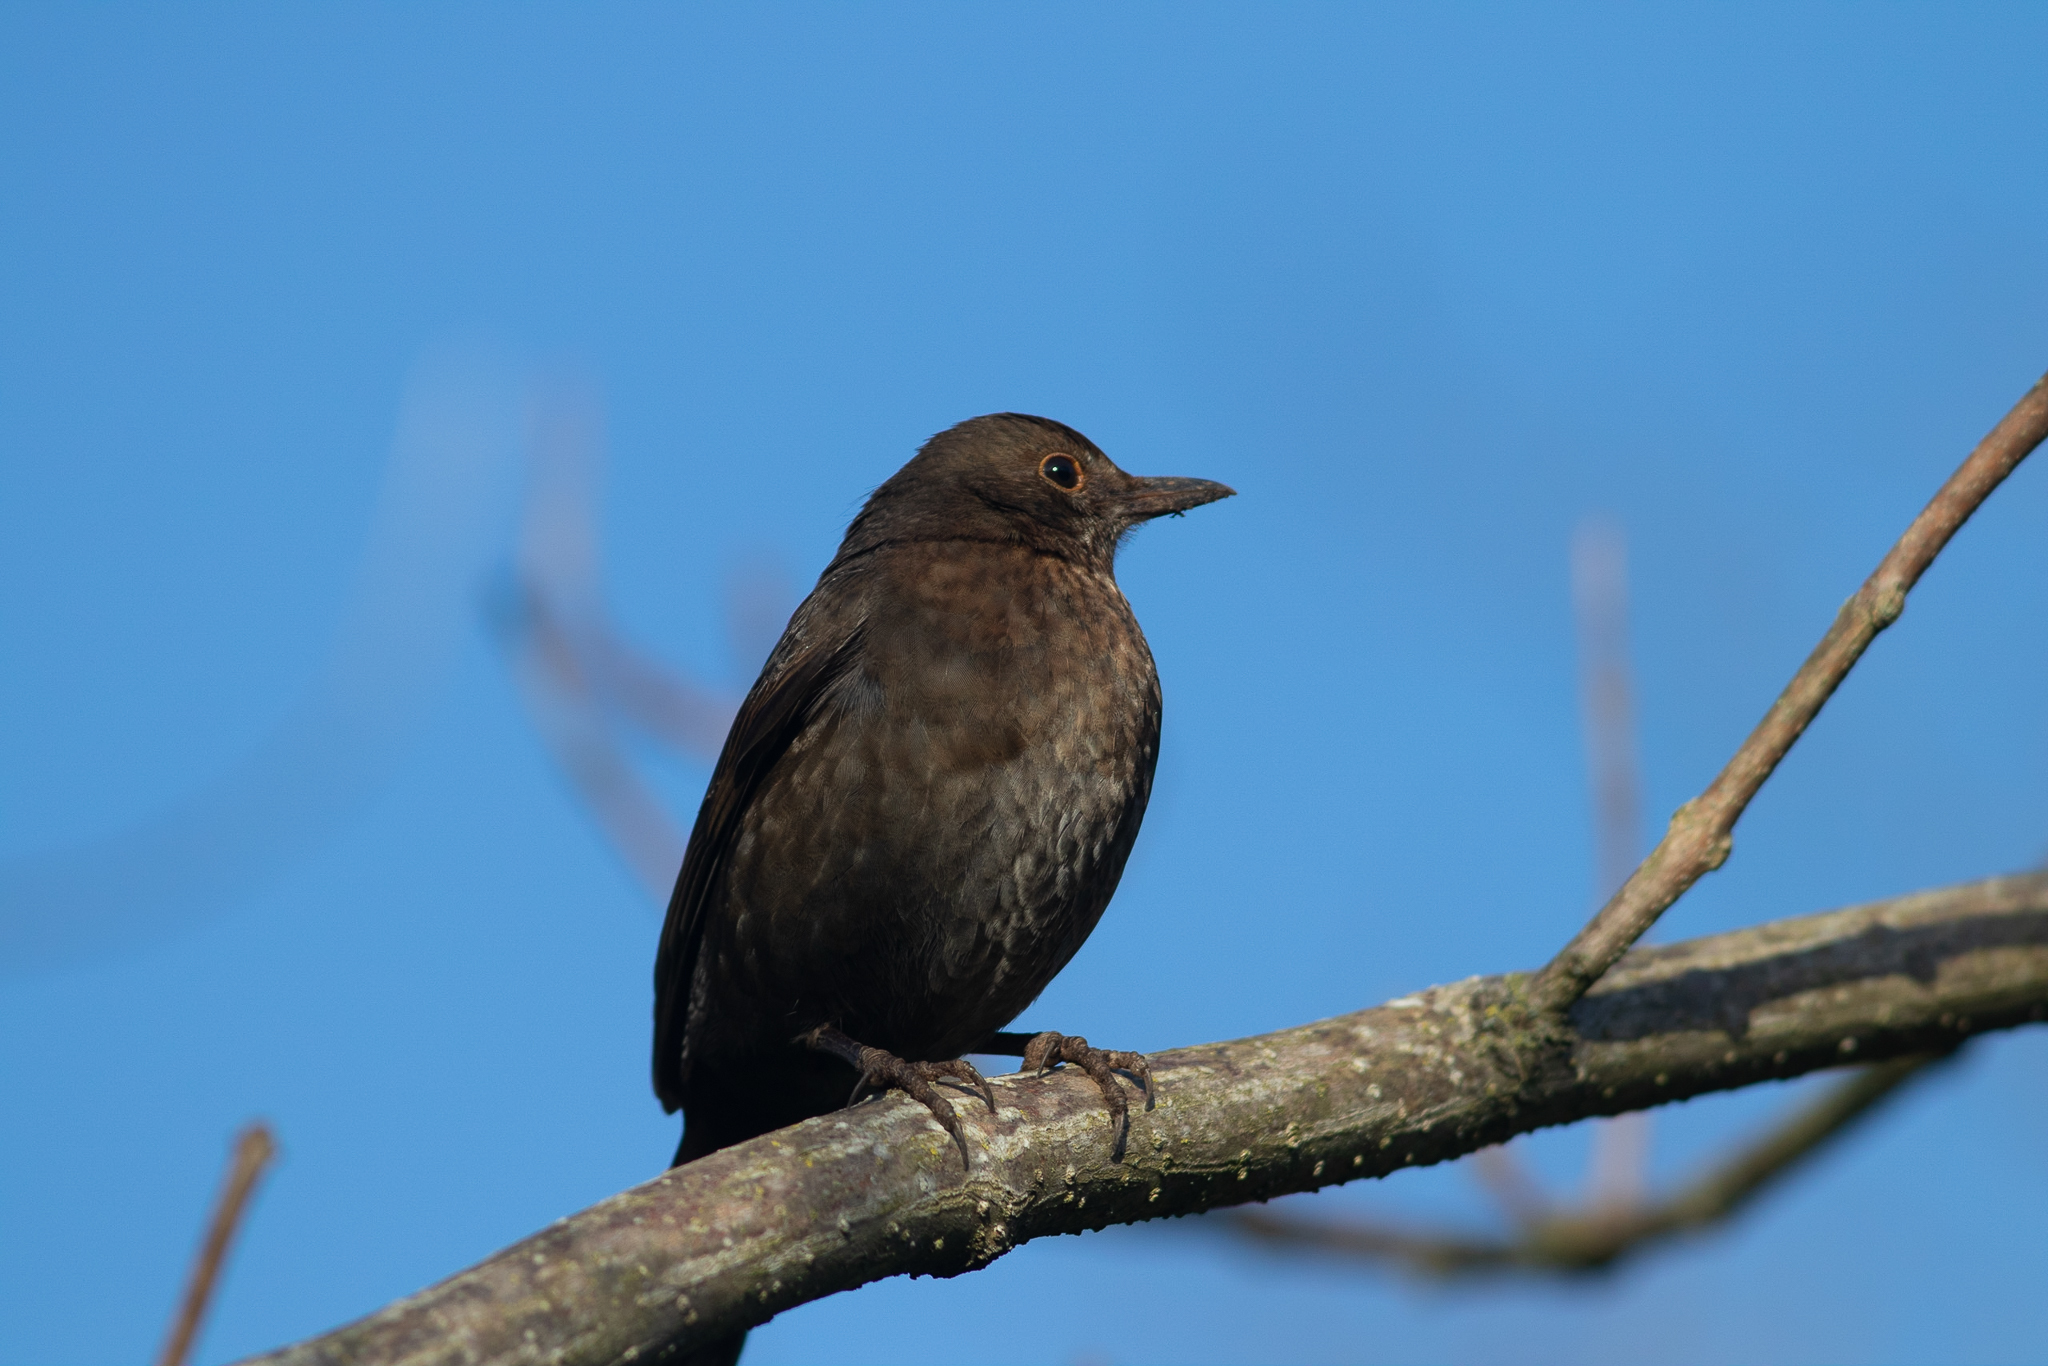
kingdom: Animalia
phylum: Chordata
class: Aves
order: Passeriformes
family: Turdidae
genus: Turdus
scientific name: Turdus merula
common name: Common blackbird
